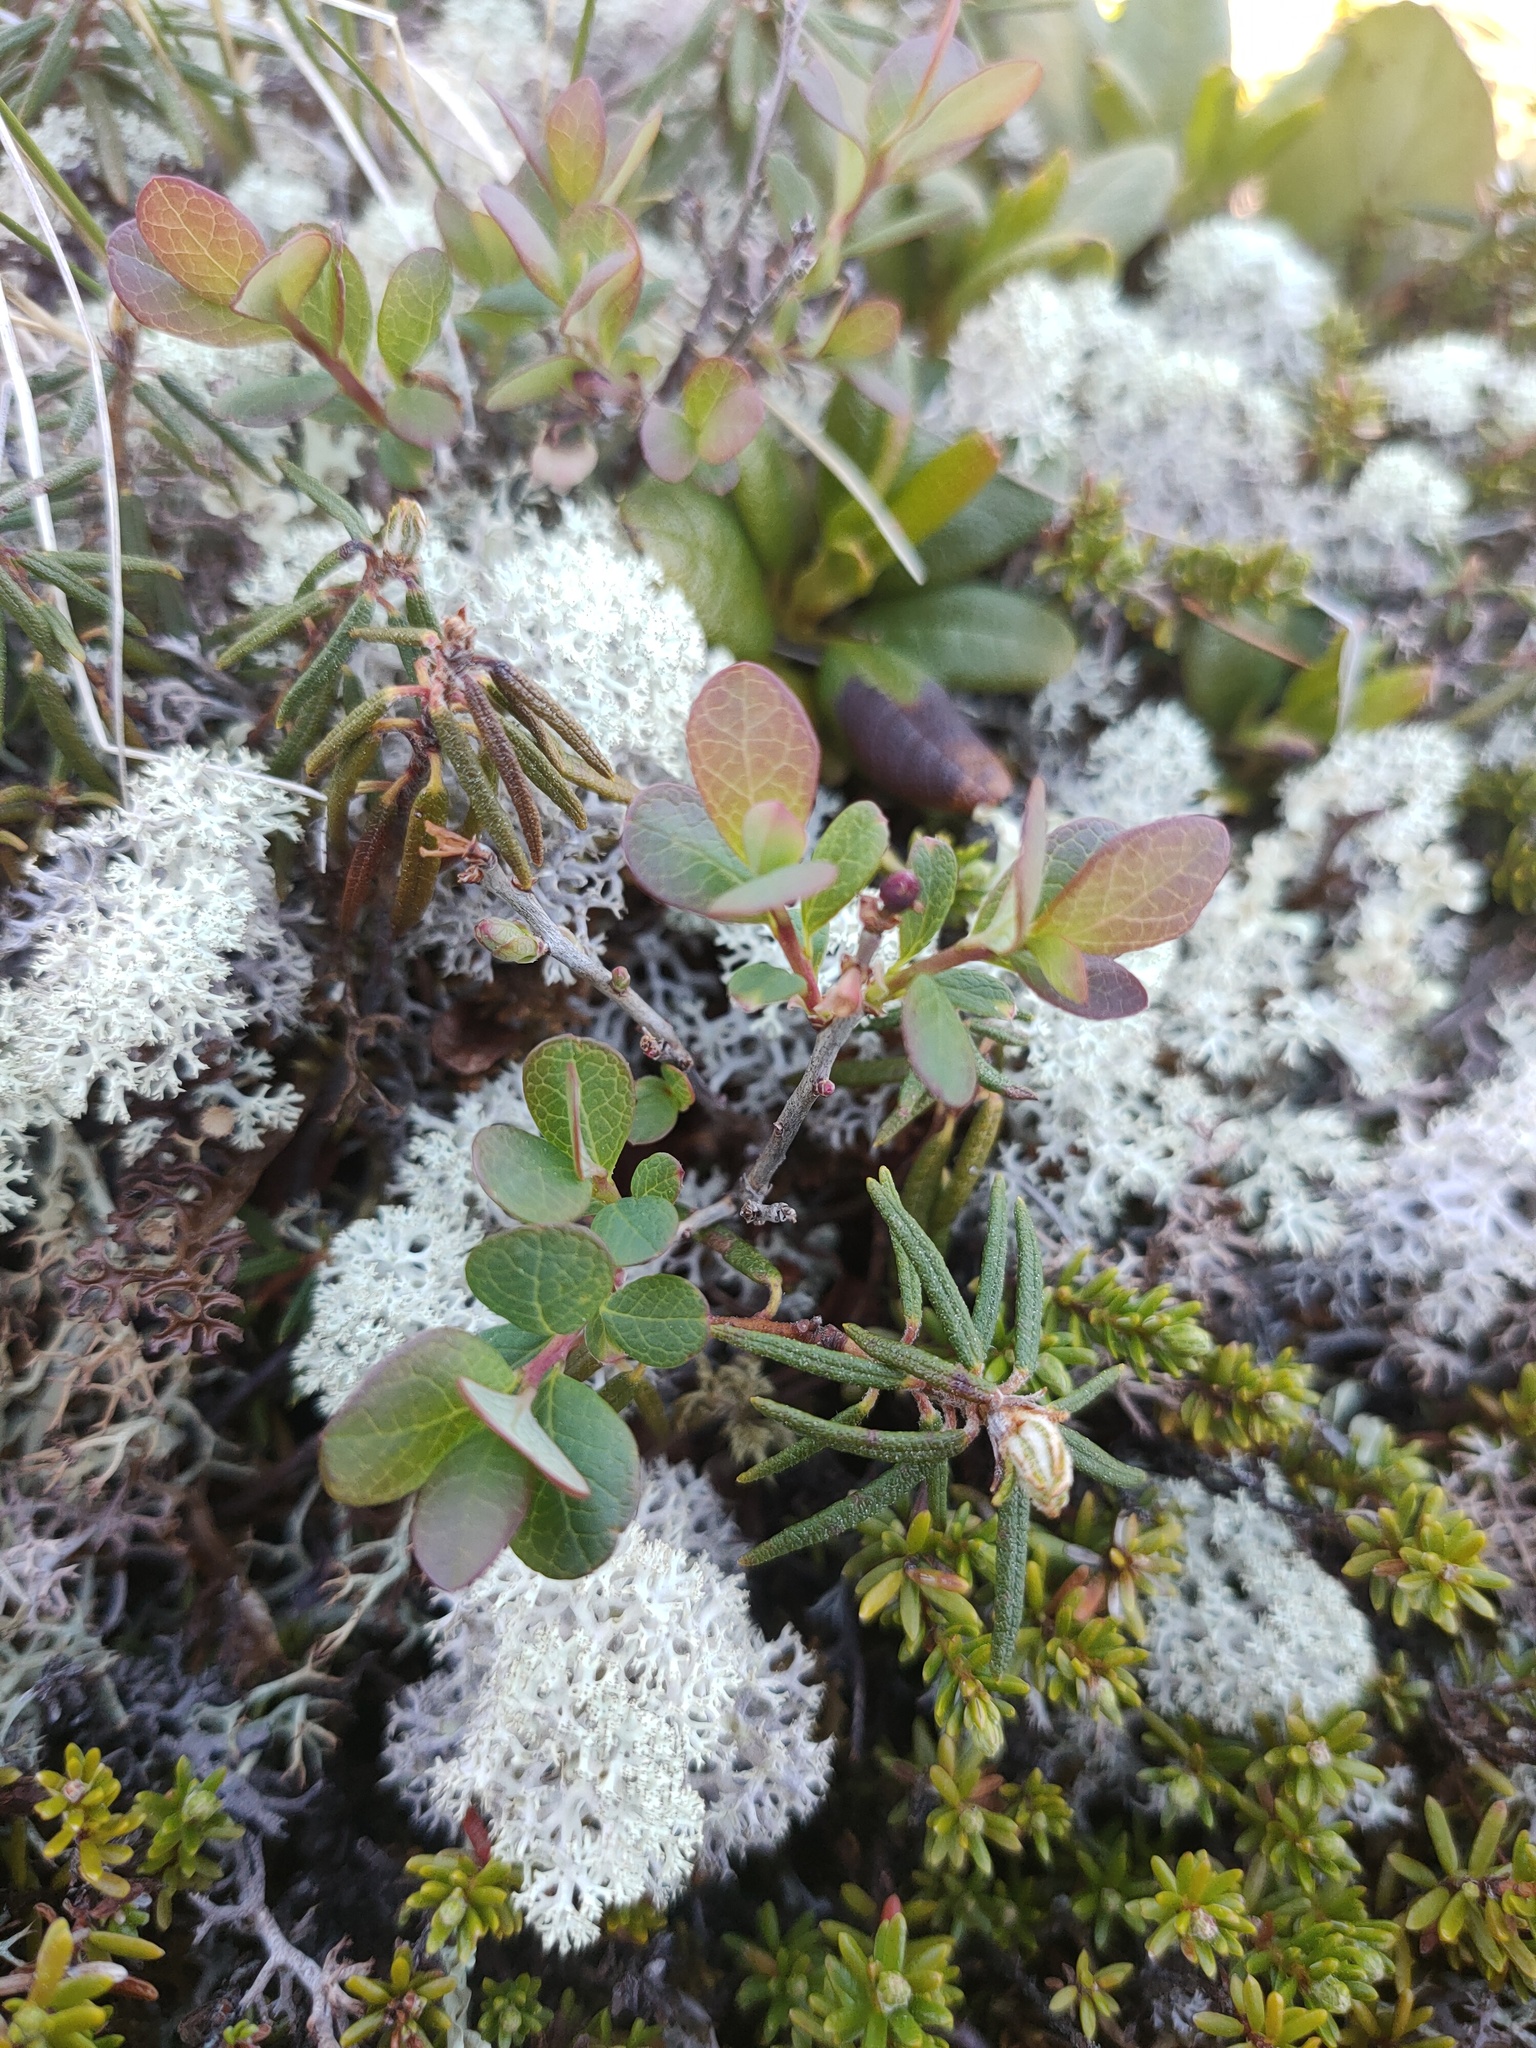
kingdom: Plantae
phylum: Tracheophyta
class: Magnoliopsida
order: Ericales
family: Ericaceae
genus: Vaccinium
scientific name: Vaccinium uliginosum
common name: Bog bilberry
